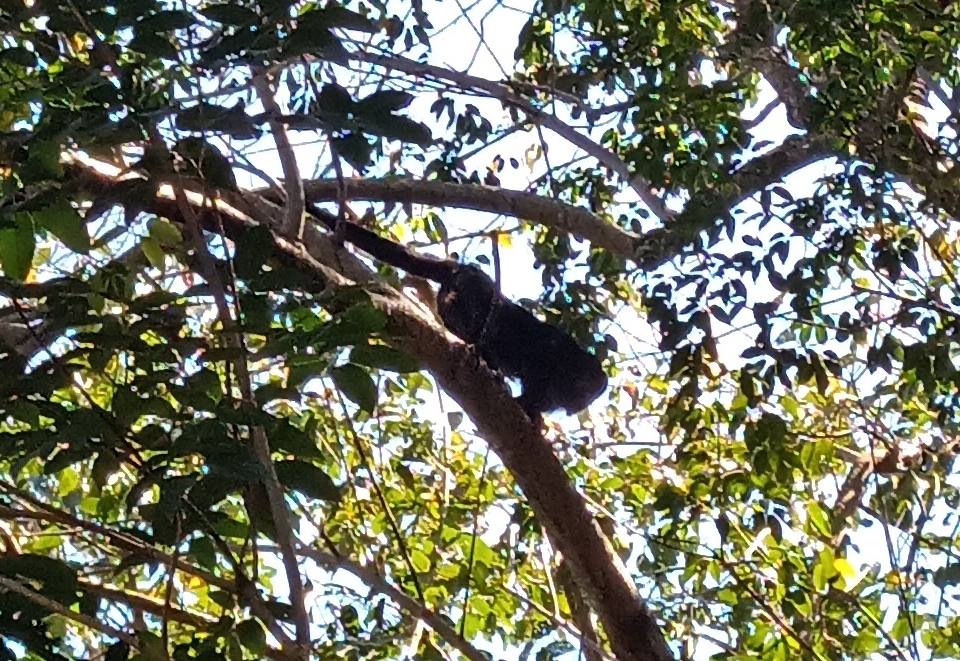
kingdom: Animalia
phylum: Chordata
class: Mammalia
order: Primates
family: Atelidae
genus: Alouatta
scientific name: Alouatta caraya
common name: Black howler
